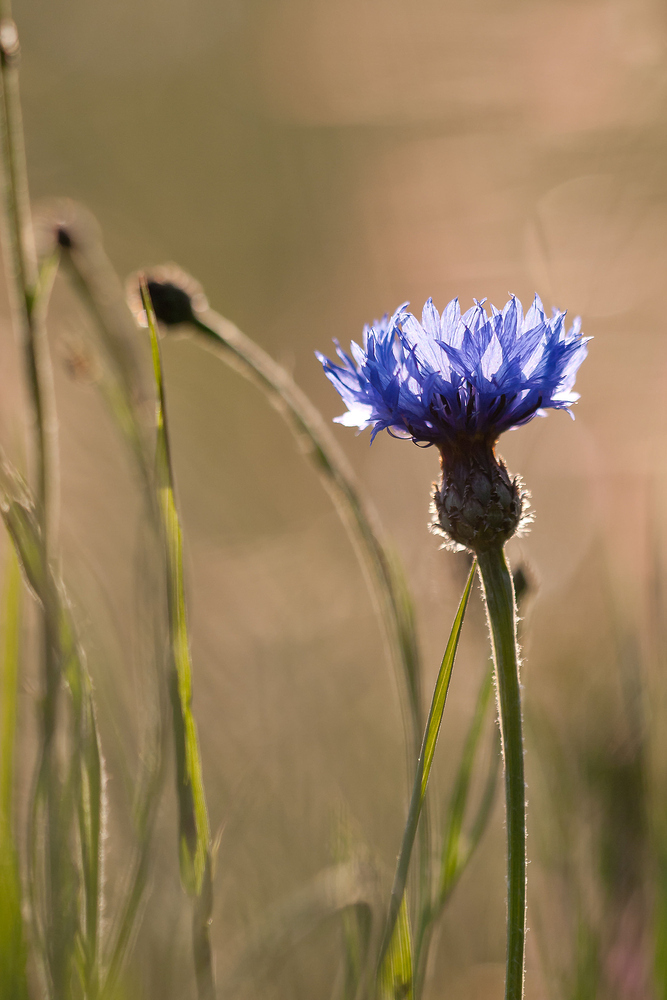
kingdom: Plantae
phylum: Tracheophyta
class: Magnoliopsida
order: Asterales
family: Asteraceae
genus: Centaurea
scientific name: Centaurea cyanus
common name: Cornflower
